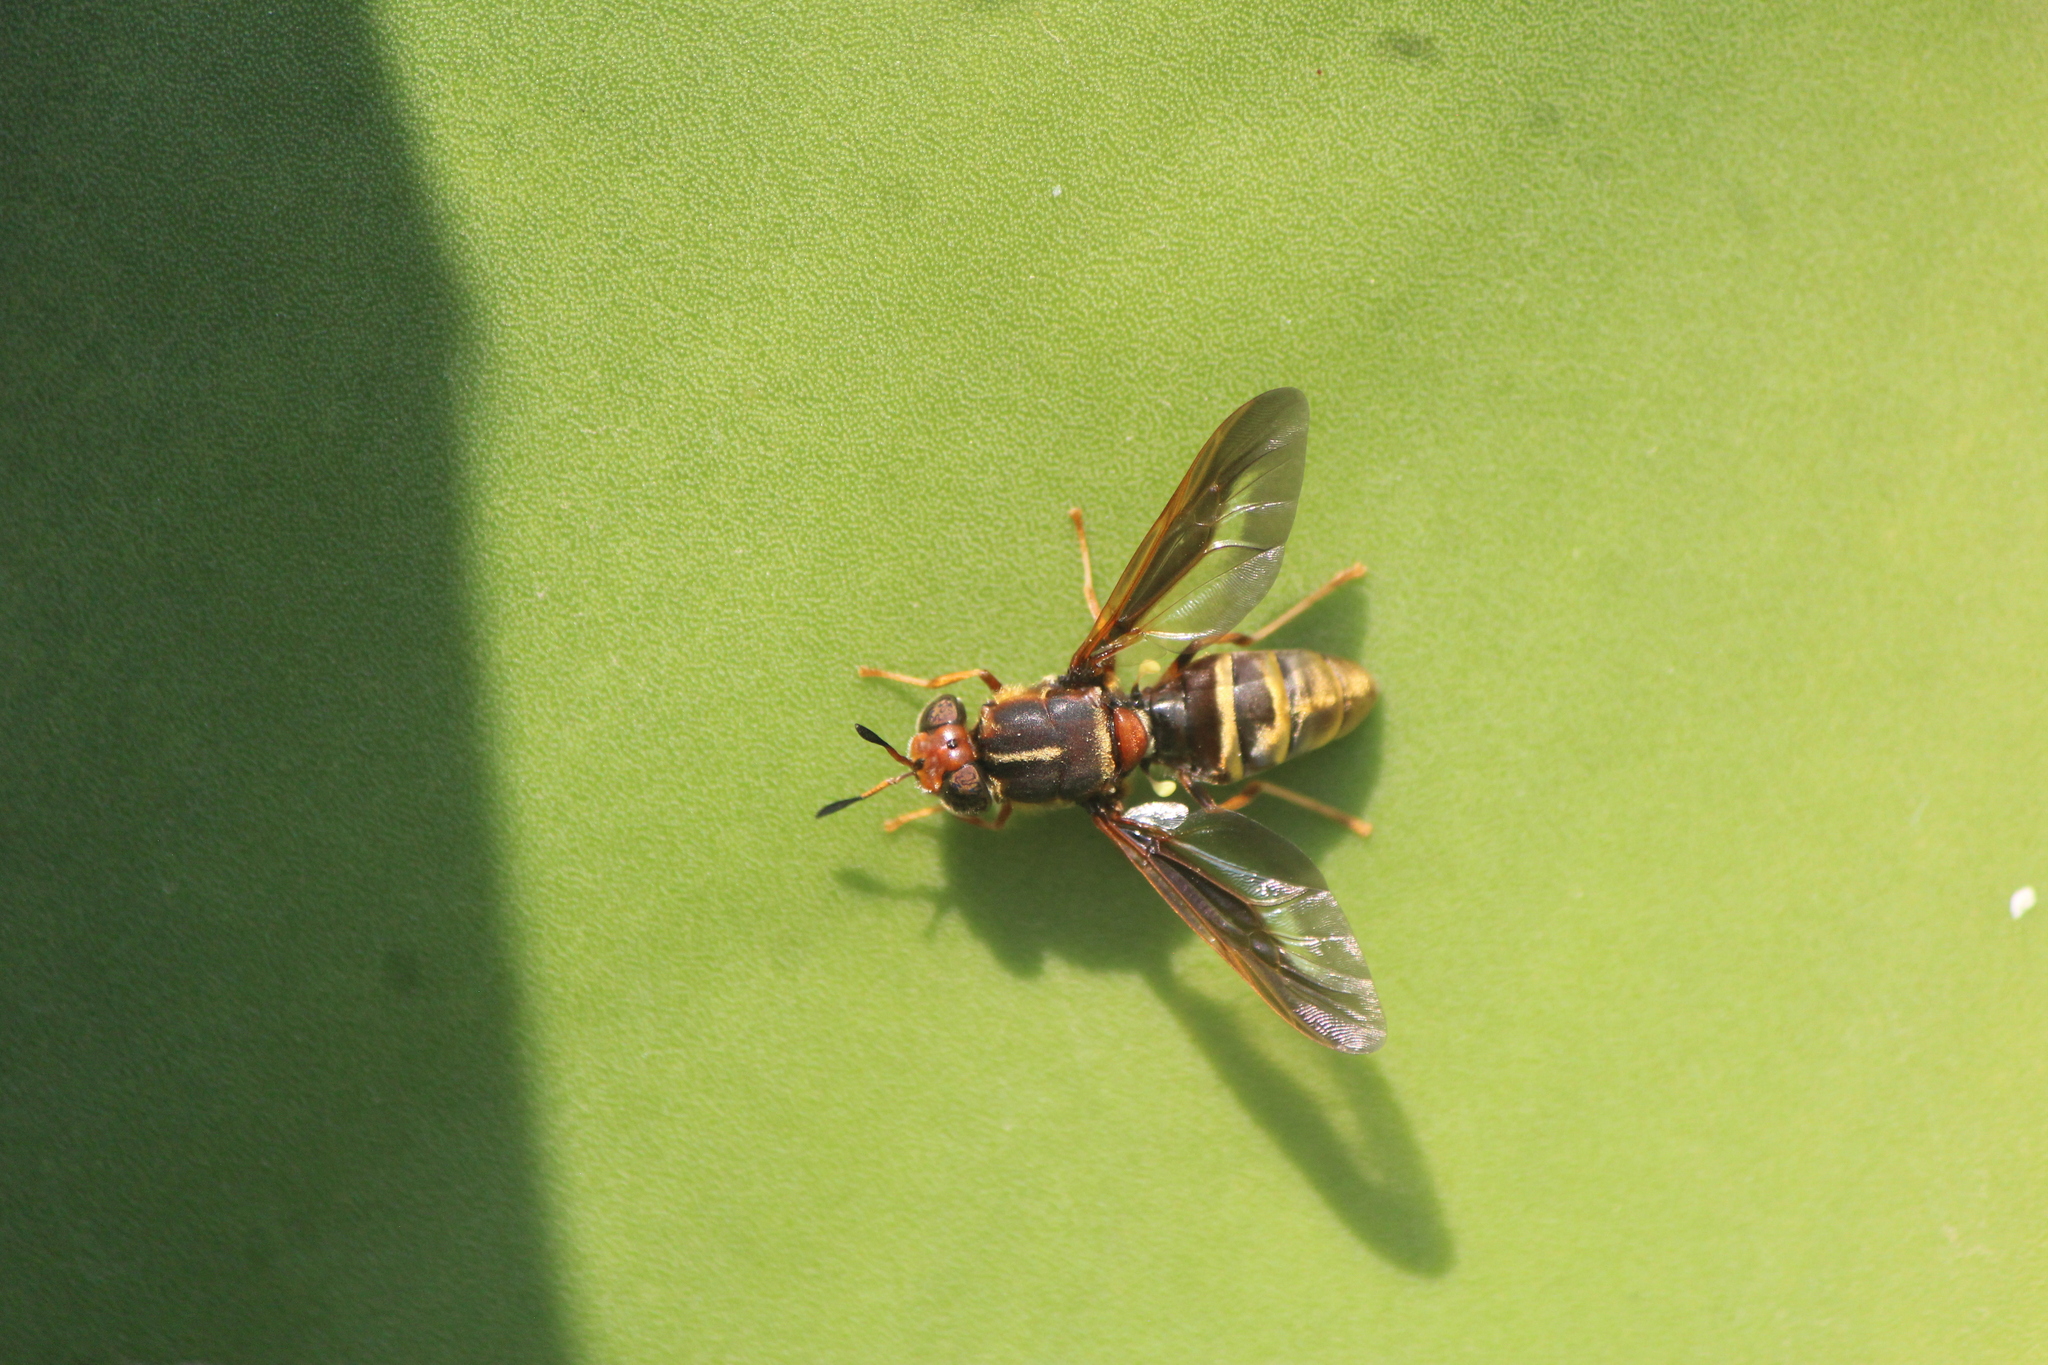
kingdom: Animalia
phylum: Arthropoda
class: Insecta
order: Diptera
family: Stratiomyidae
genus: Hermetia
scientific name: Hermetia comstocki
